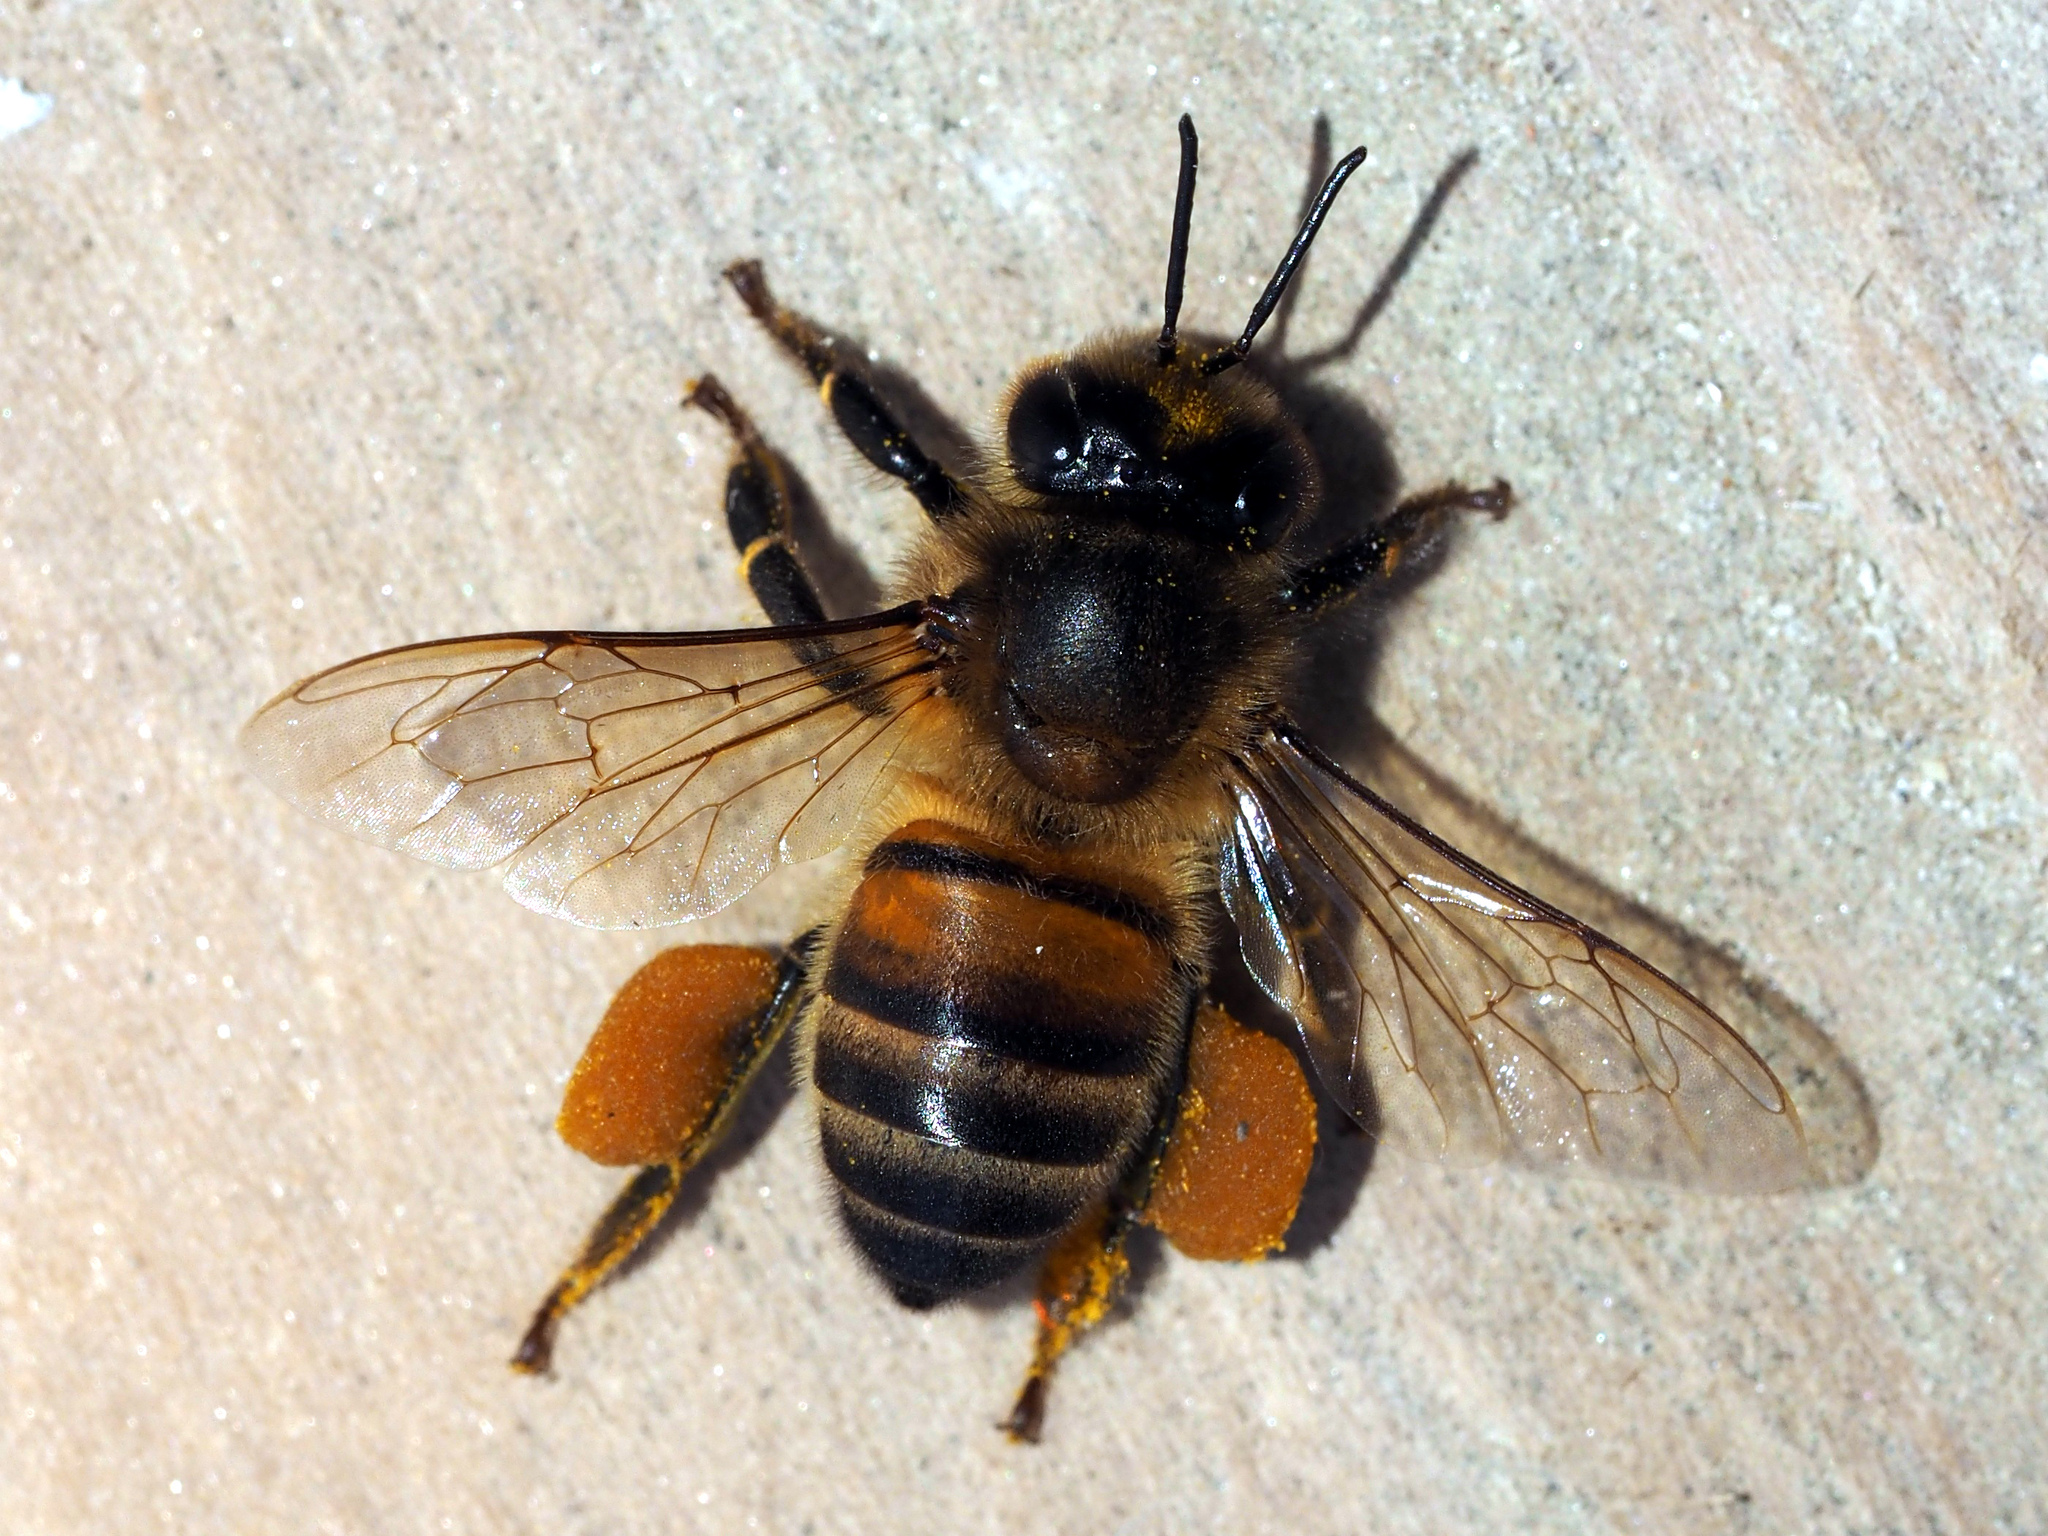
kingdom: Animalia
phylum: Arthropoda
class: Insecta
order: Hymenoptera
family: Apidae
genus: Apis
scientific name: Apis mellifera
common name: Honey bee
